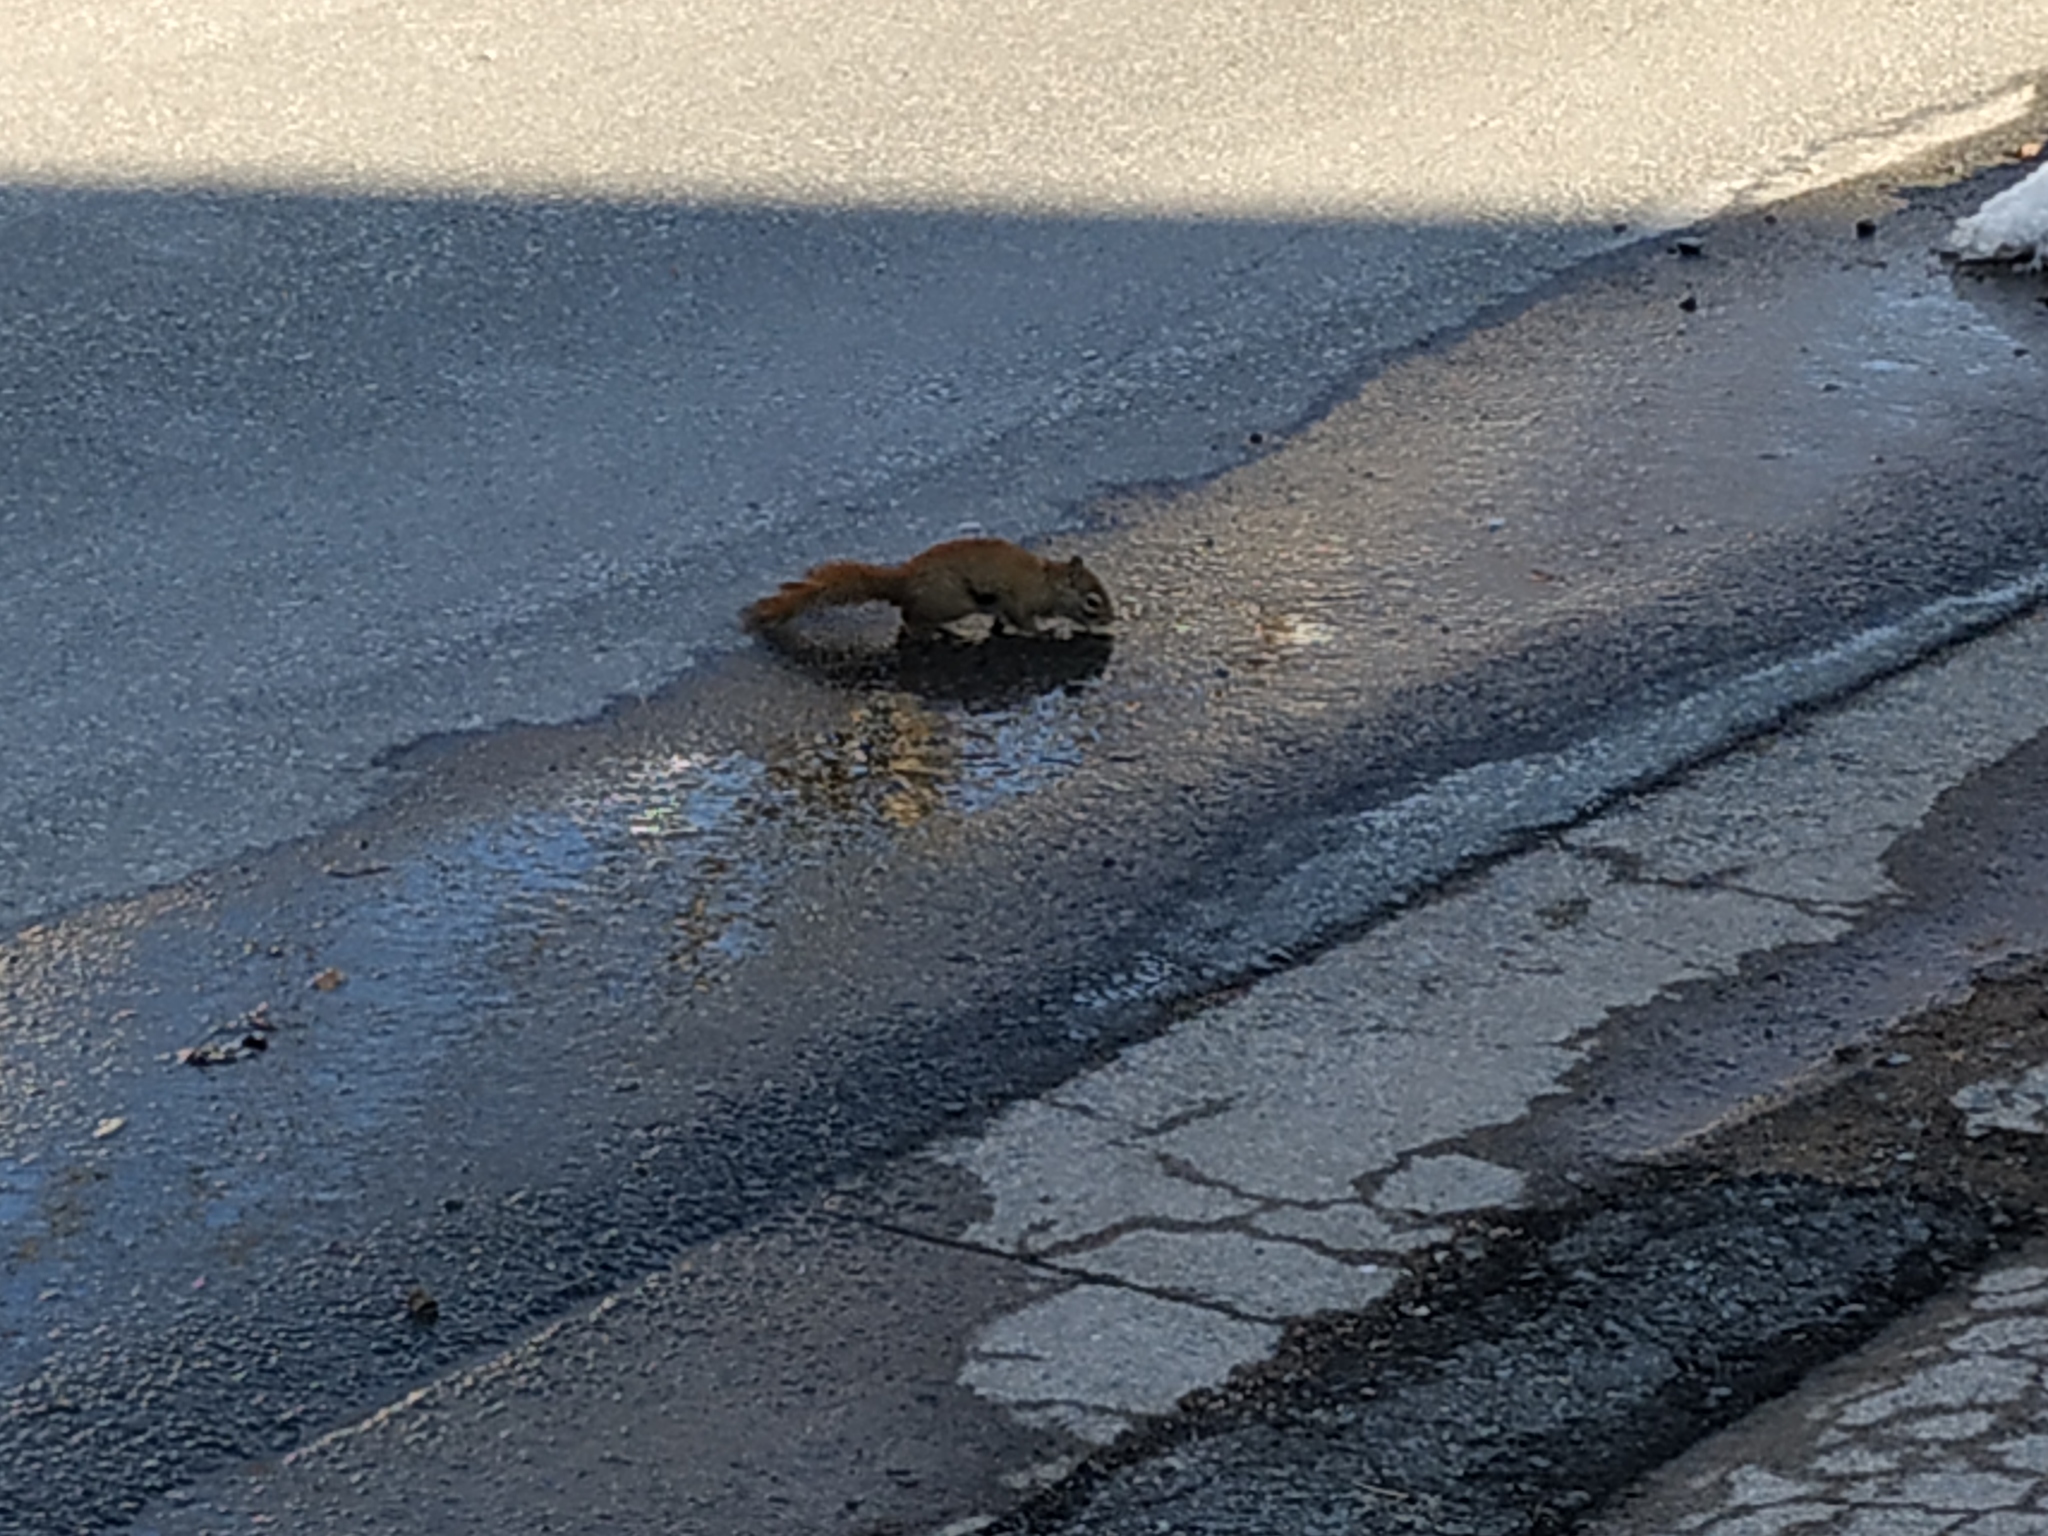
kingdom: Animalia
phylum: Chordata
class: Mammalia
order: Rodentia
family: Sciuridae
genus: Tamiasciurus
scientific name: Tamiasciurus hudsonicus
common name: Red squirrel
